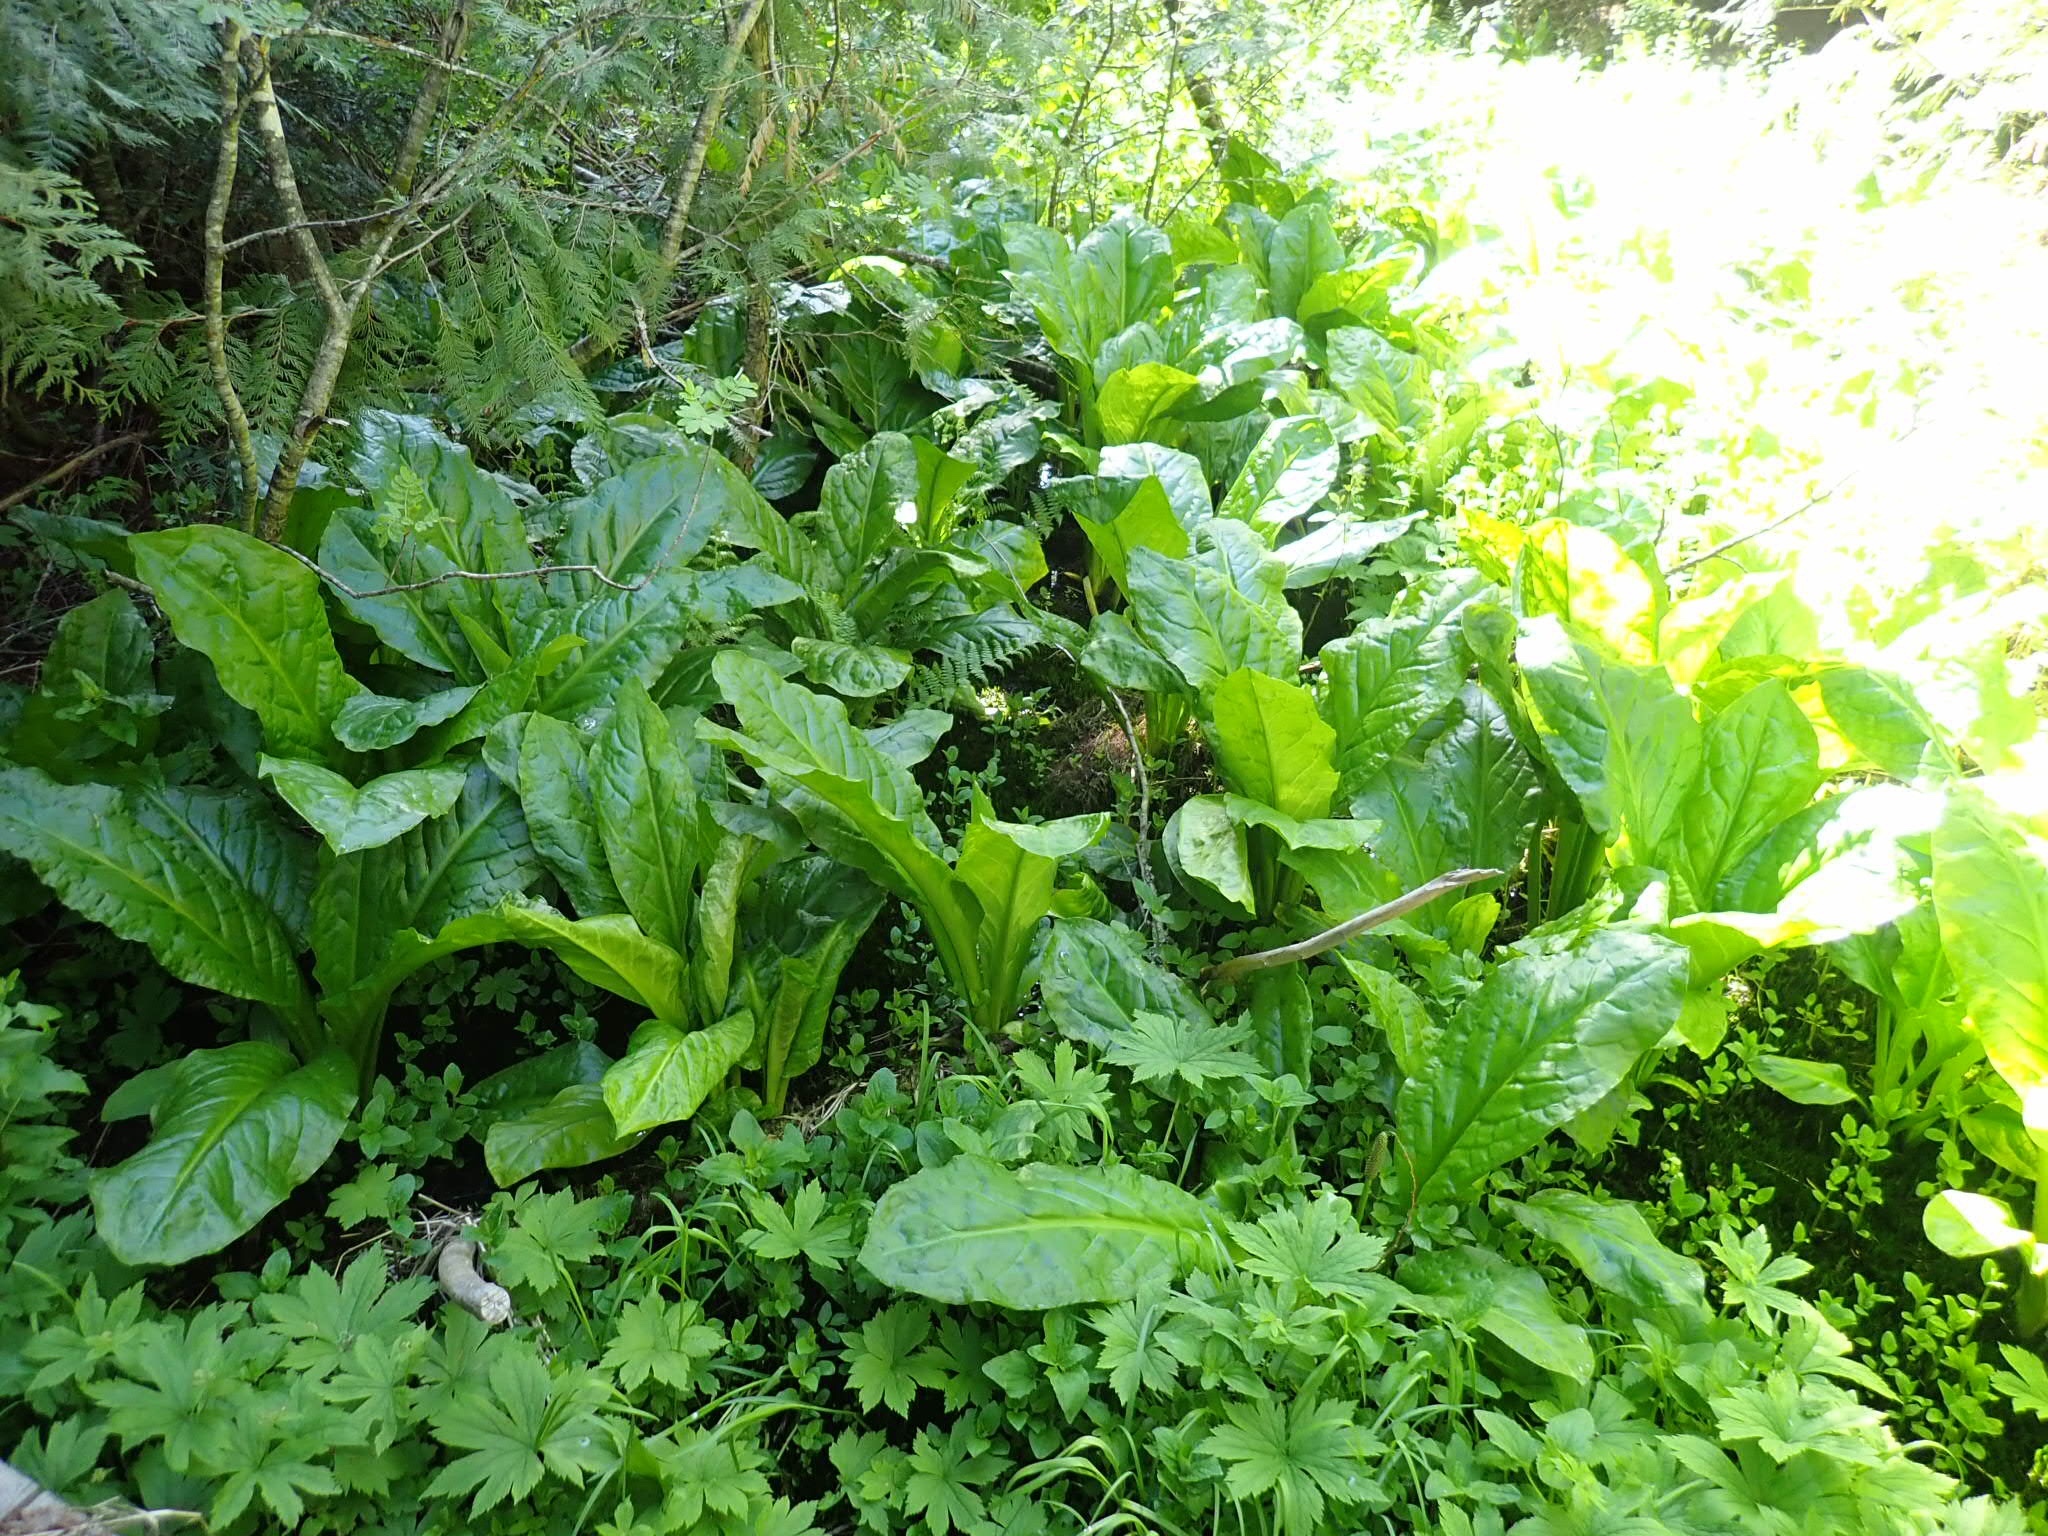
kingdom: Plantae
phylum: Tracheophyta
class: Liliopsida
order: Alismatales
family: Araceae
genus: Lysichiton
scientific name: Lysichiton americanus
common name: American skunk cabbage
